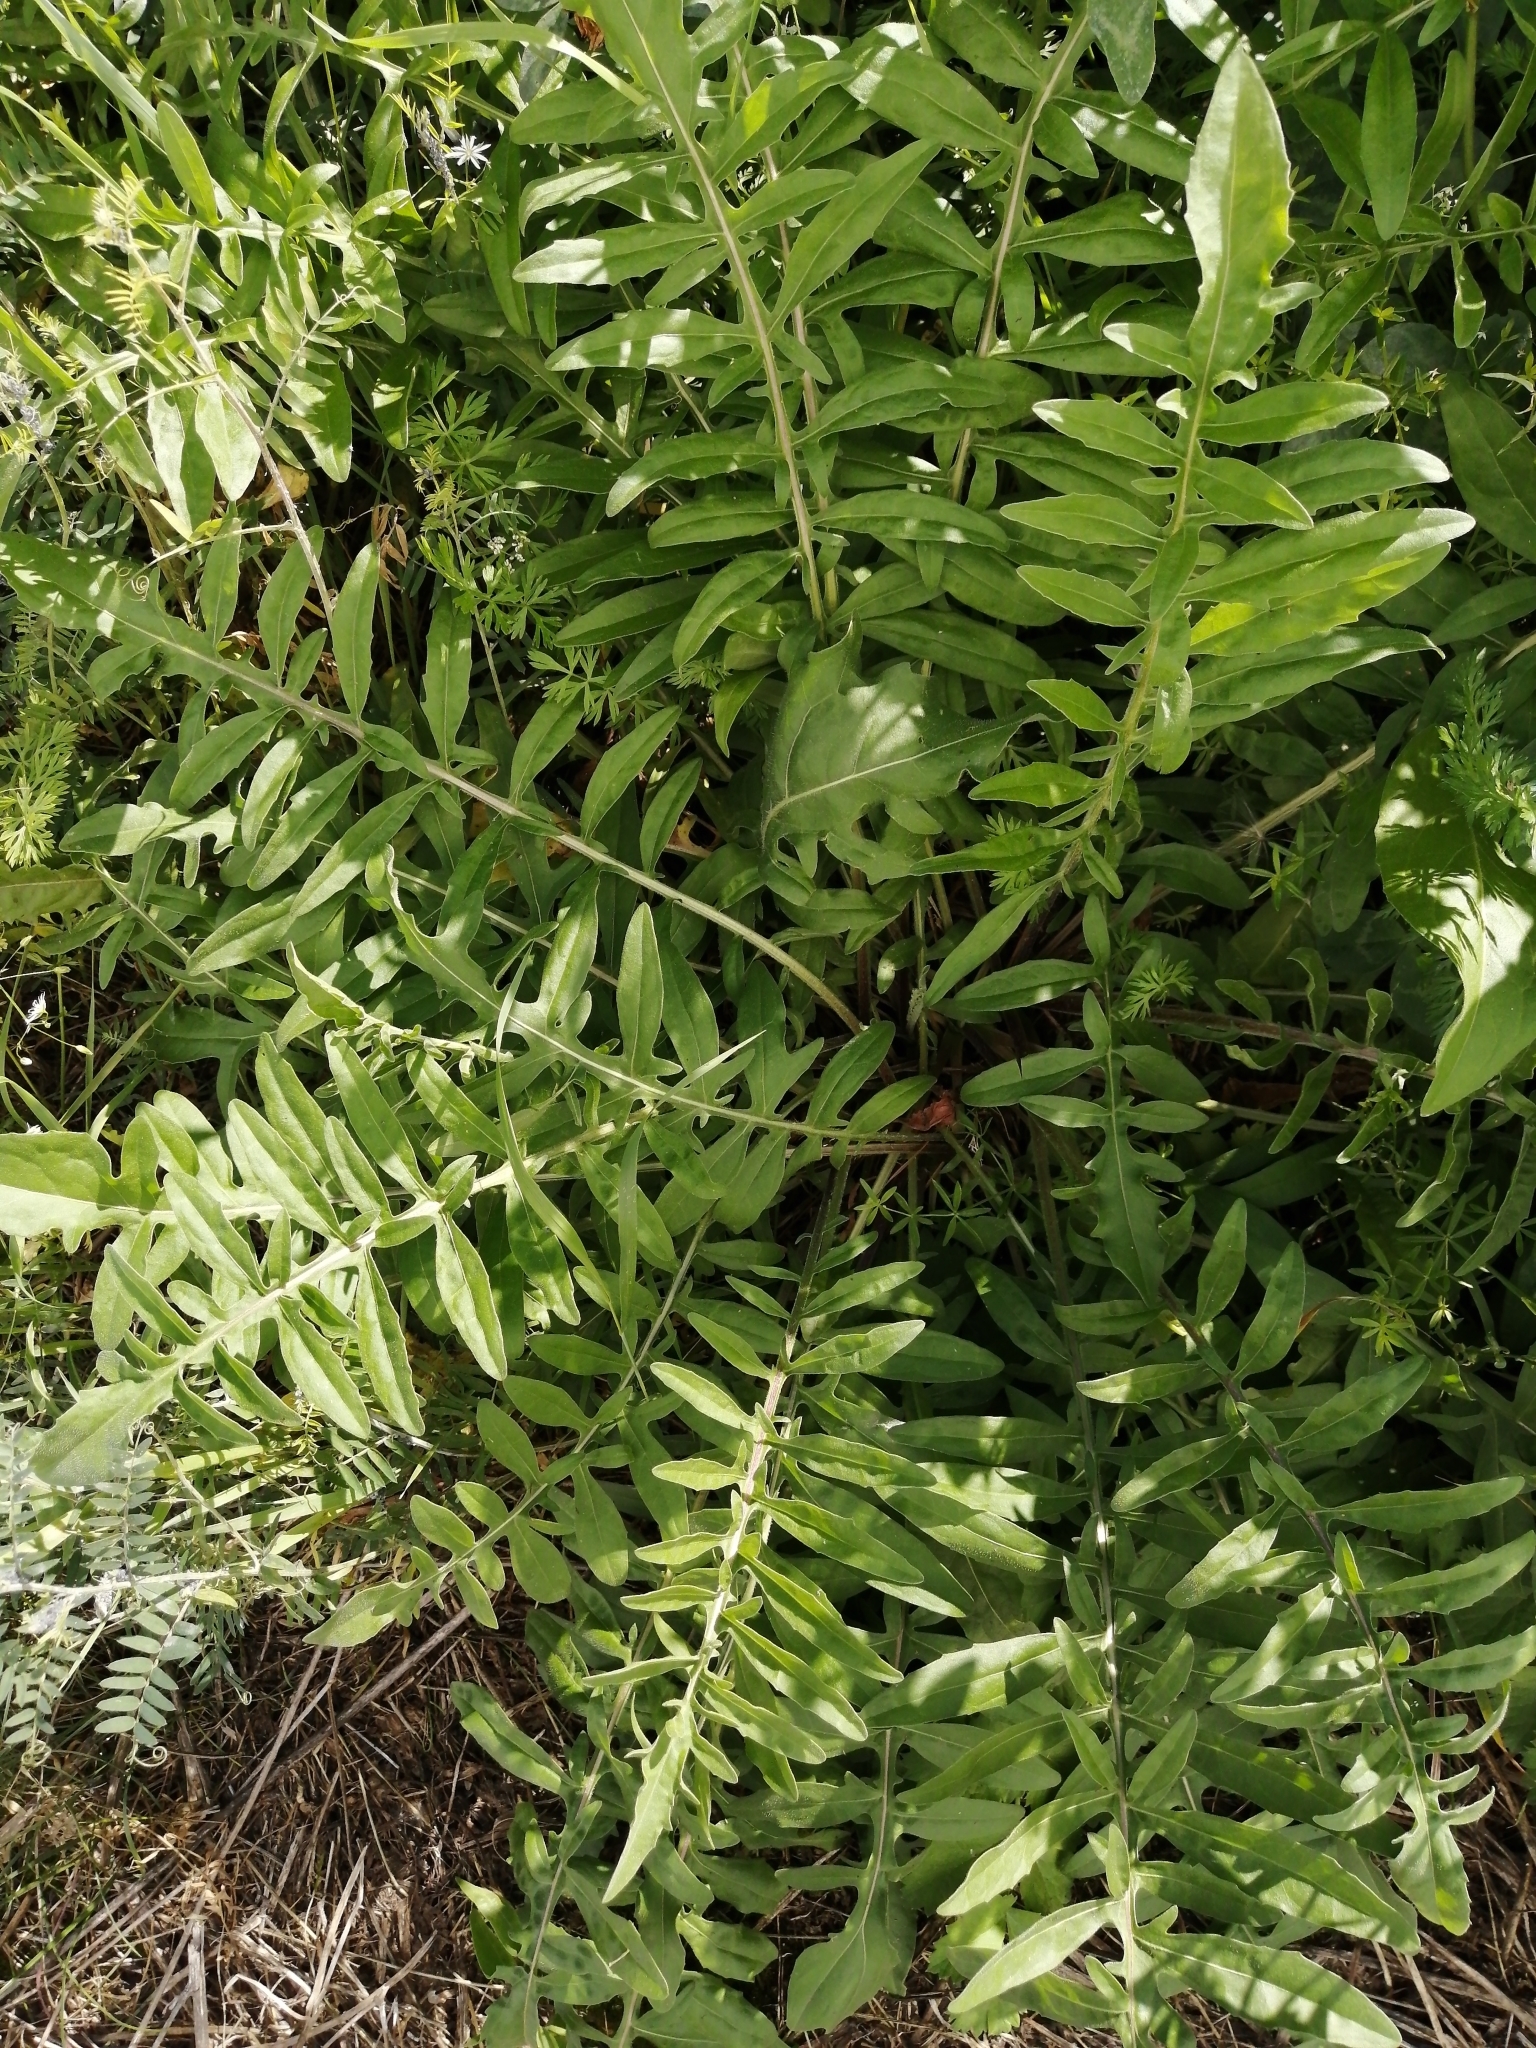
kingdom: Plantae
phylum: Tracheophyta
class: Magnoliopsida
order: Asterales
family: Asteraceae
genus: Centaurea
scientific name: Centaurea scabiosa
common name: Greater knapweed
